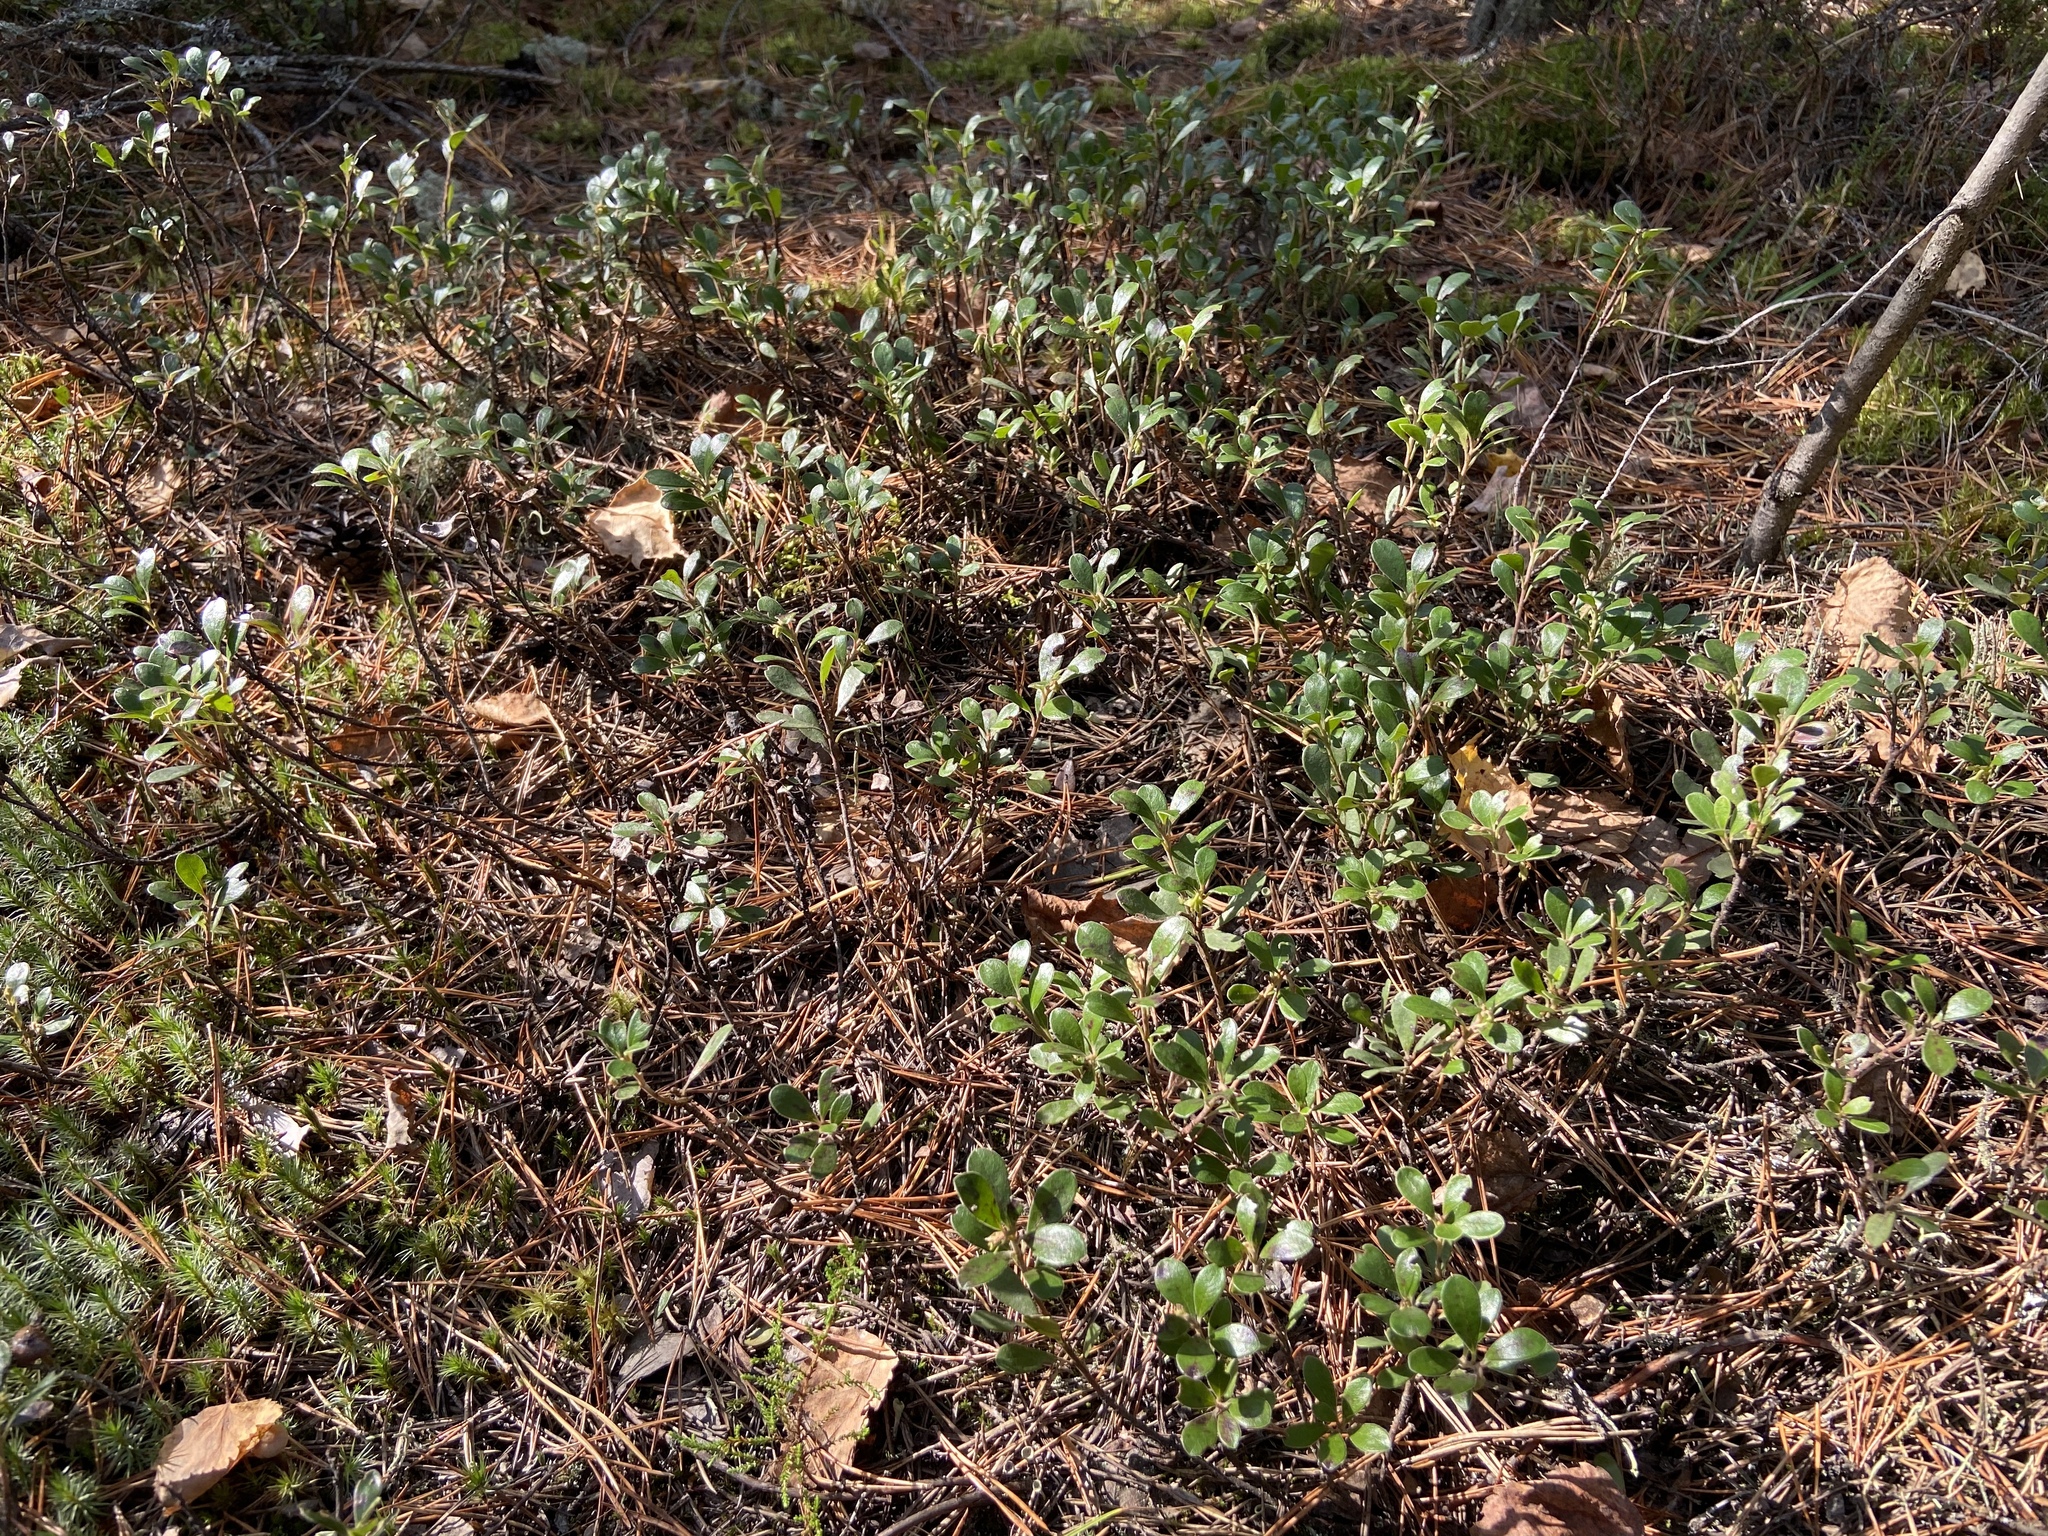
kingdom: Plantae
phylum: Tracheophyta
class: Magnoliopsida
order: Ericales
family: Ericaceae
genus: Arctostaphylos
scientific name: Arctostaphylos uva-ursi
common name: Bearberry
